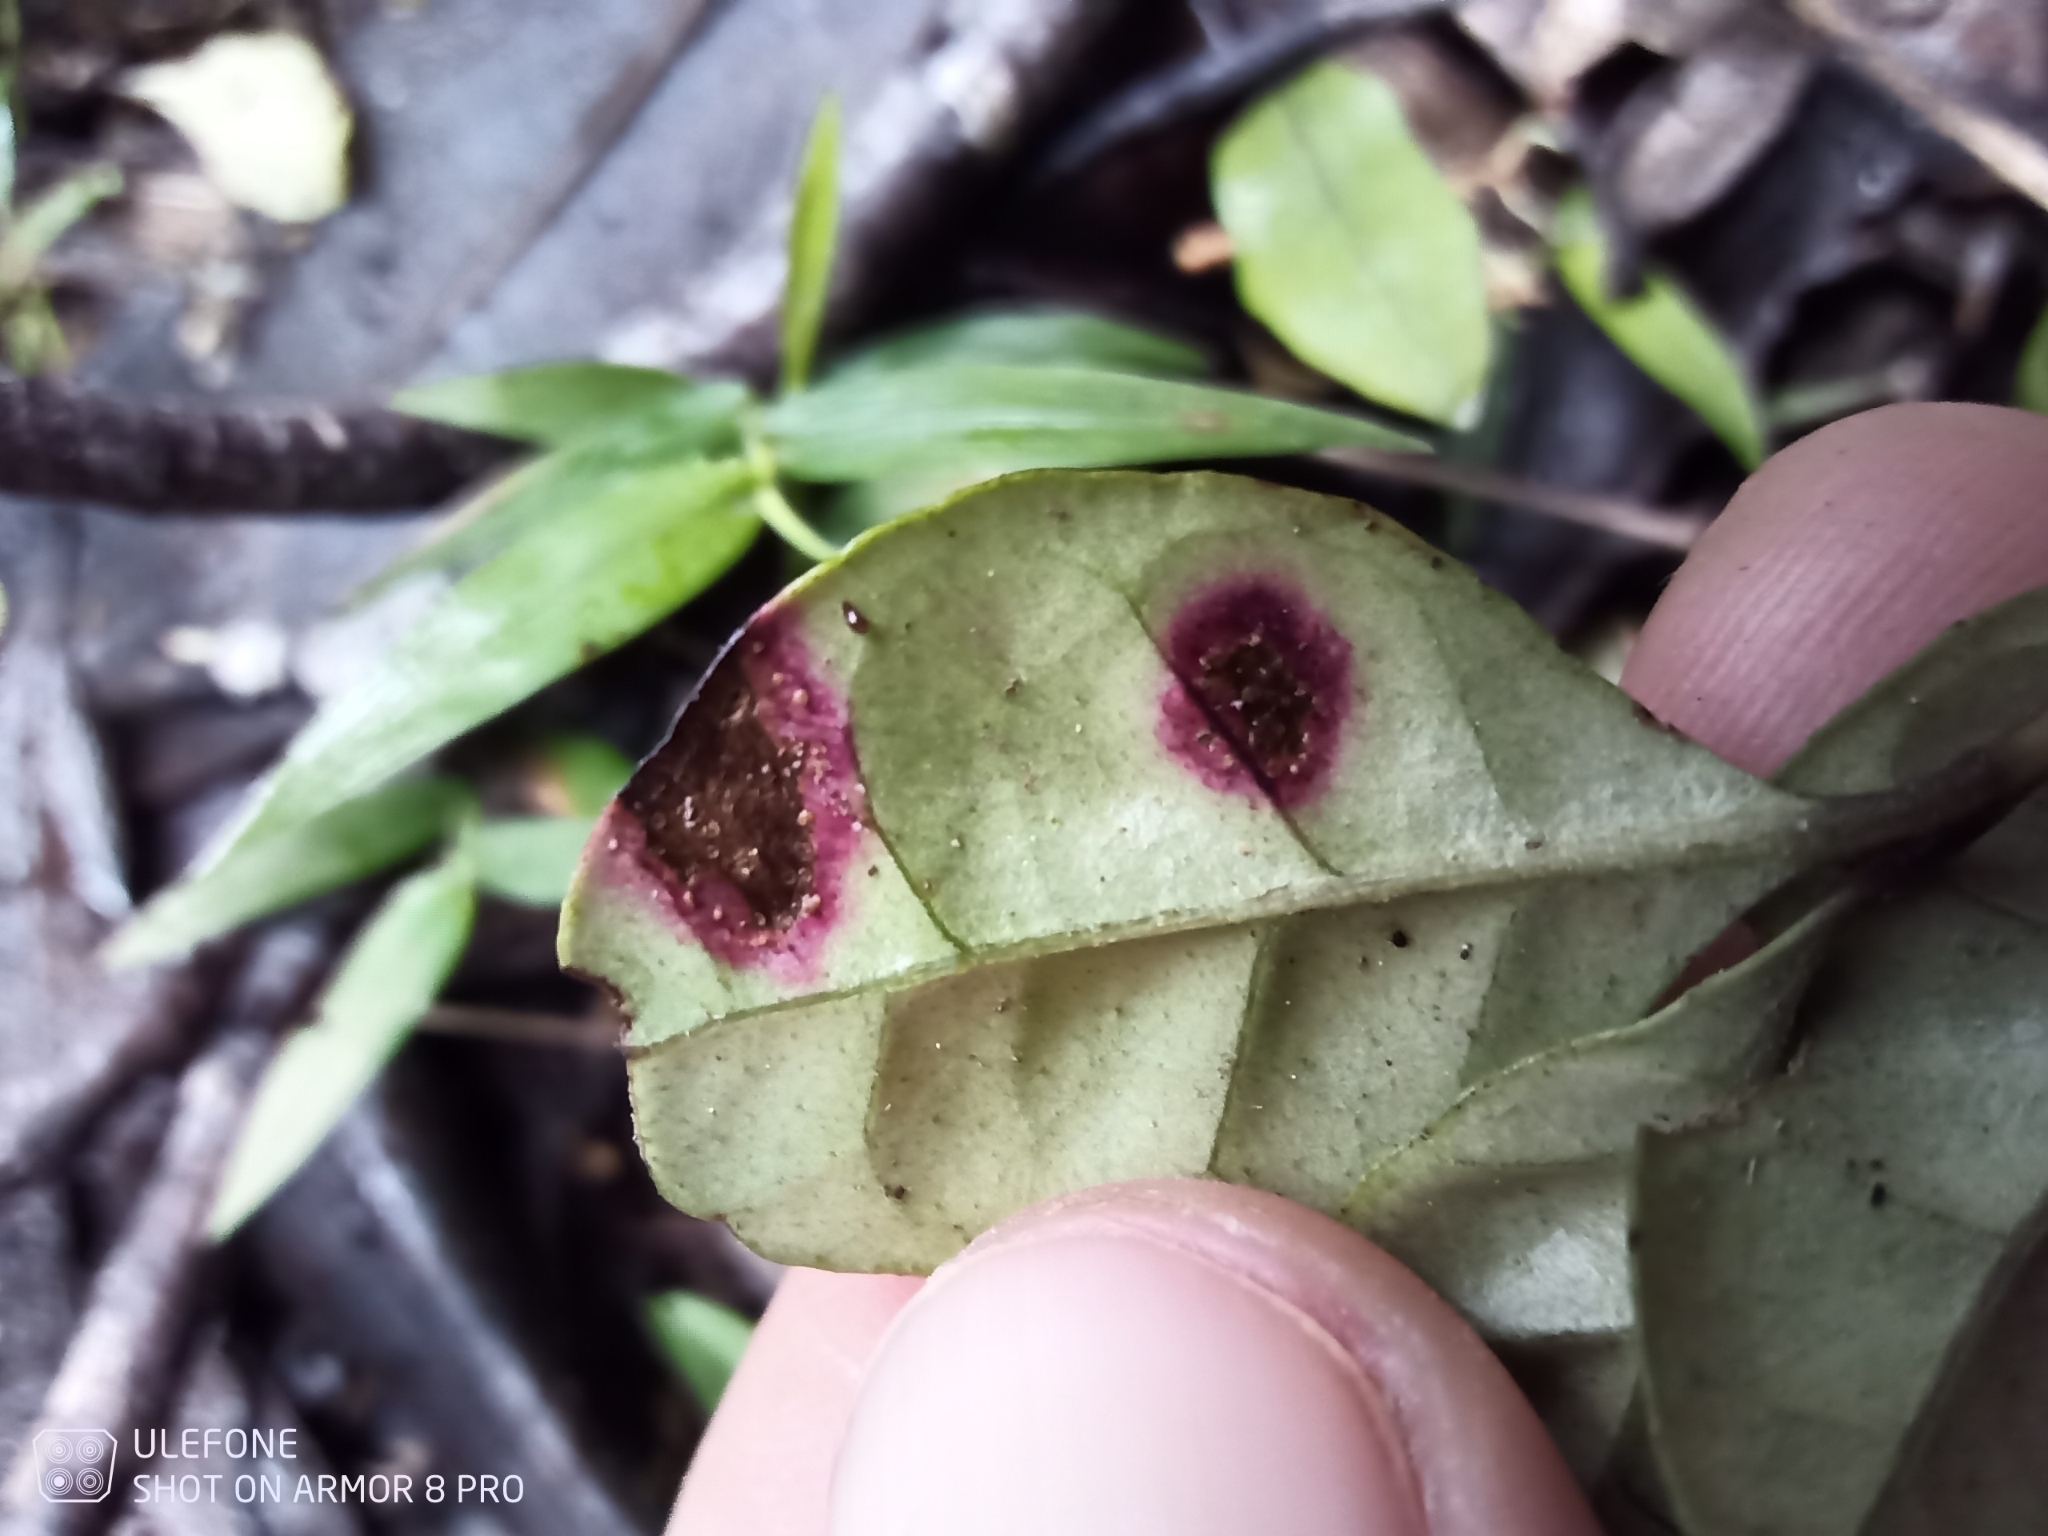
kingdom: Fungi
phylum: Basidiomycota
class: Pucciniomycetes
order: Pucciniales
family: Sphaerophragmiaceae
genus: Austropuccinia
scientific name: Austropuccinia psidii
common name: Myrtle rust
